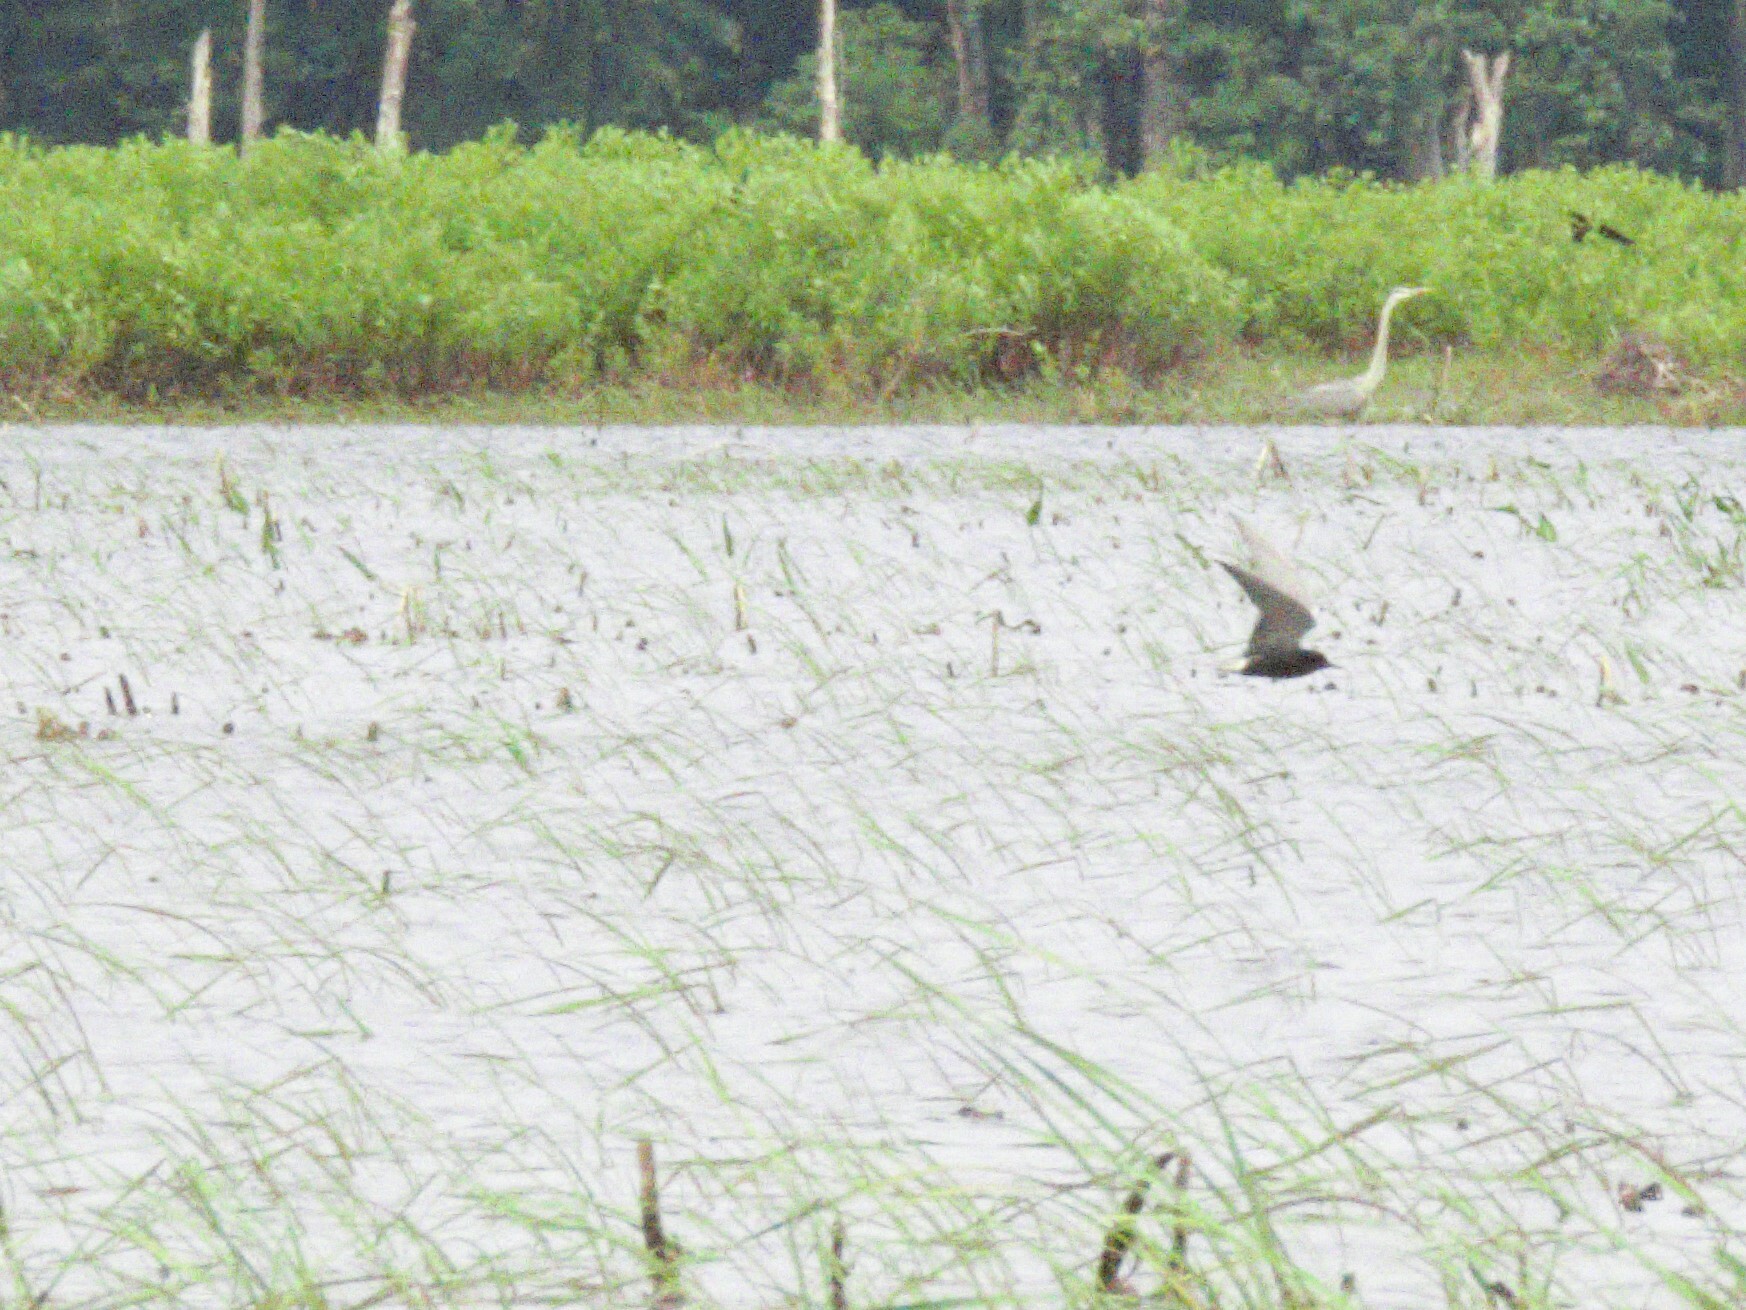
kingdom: Animalia
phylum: Chordata
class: Aves
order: Charadriiformes
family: Laridae
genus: Chlidonias
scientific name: Chlidonias niger
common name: Black tern
